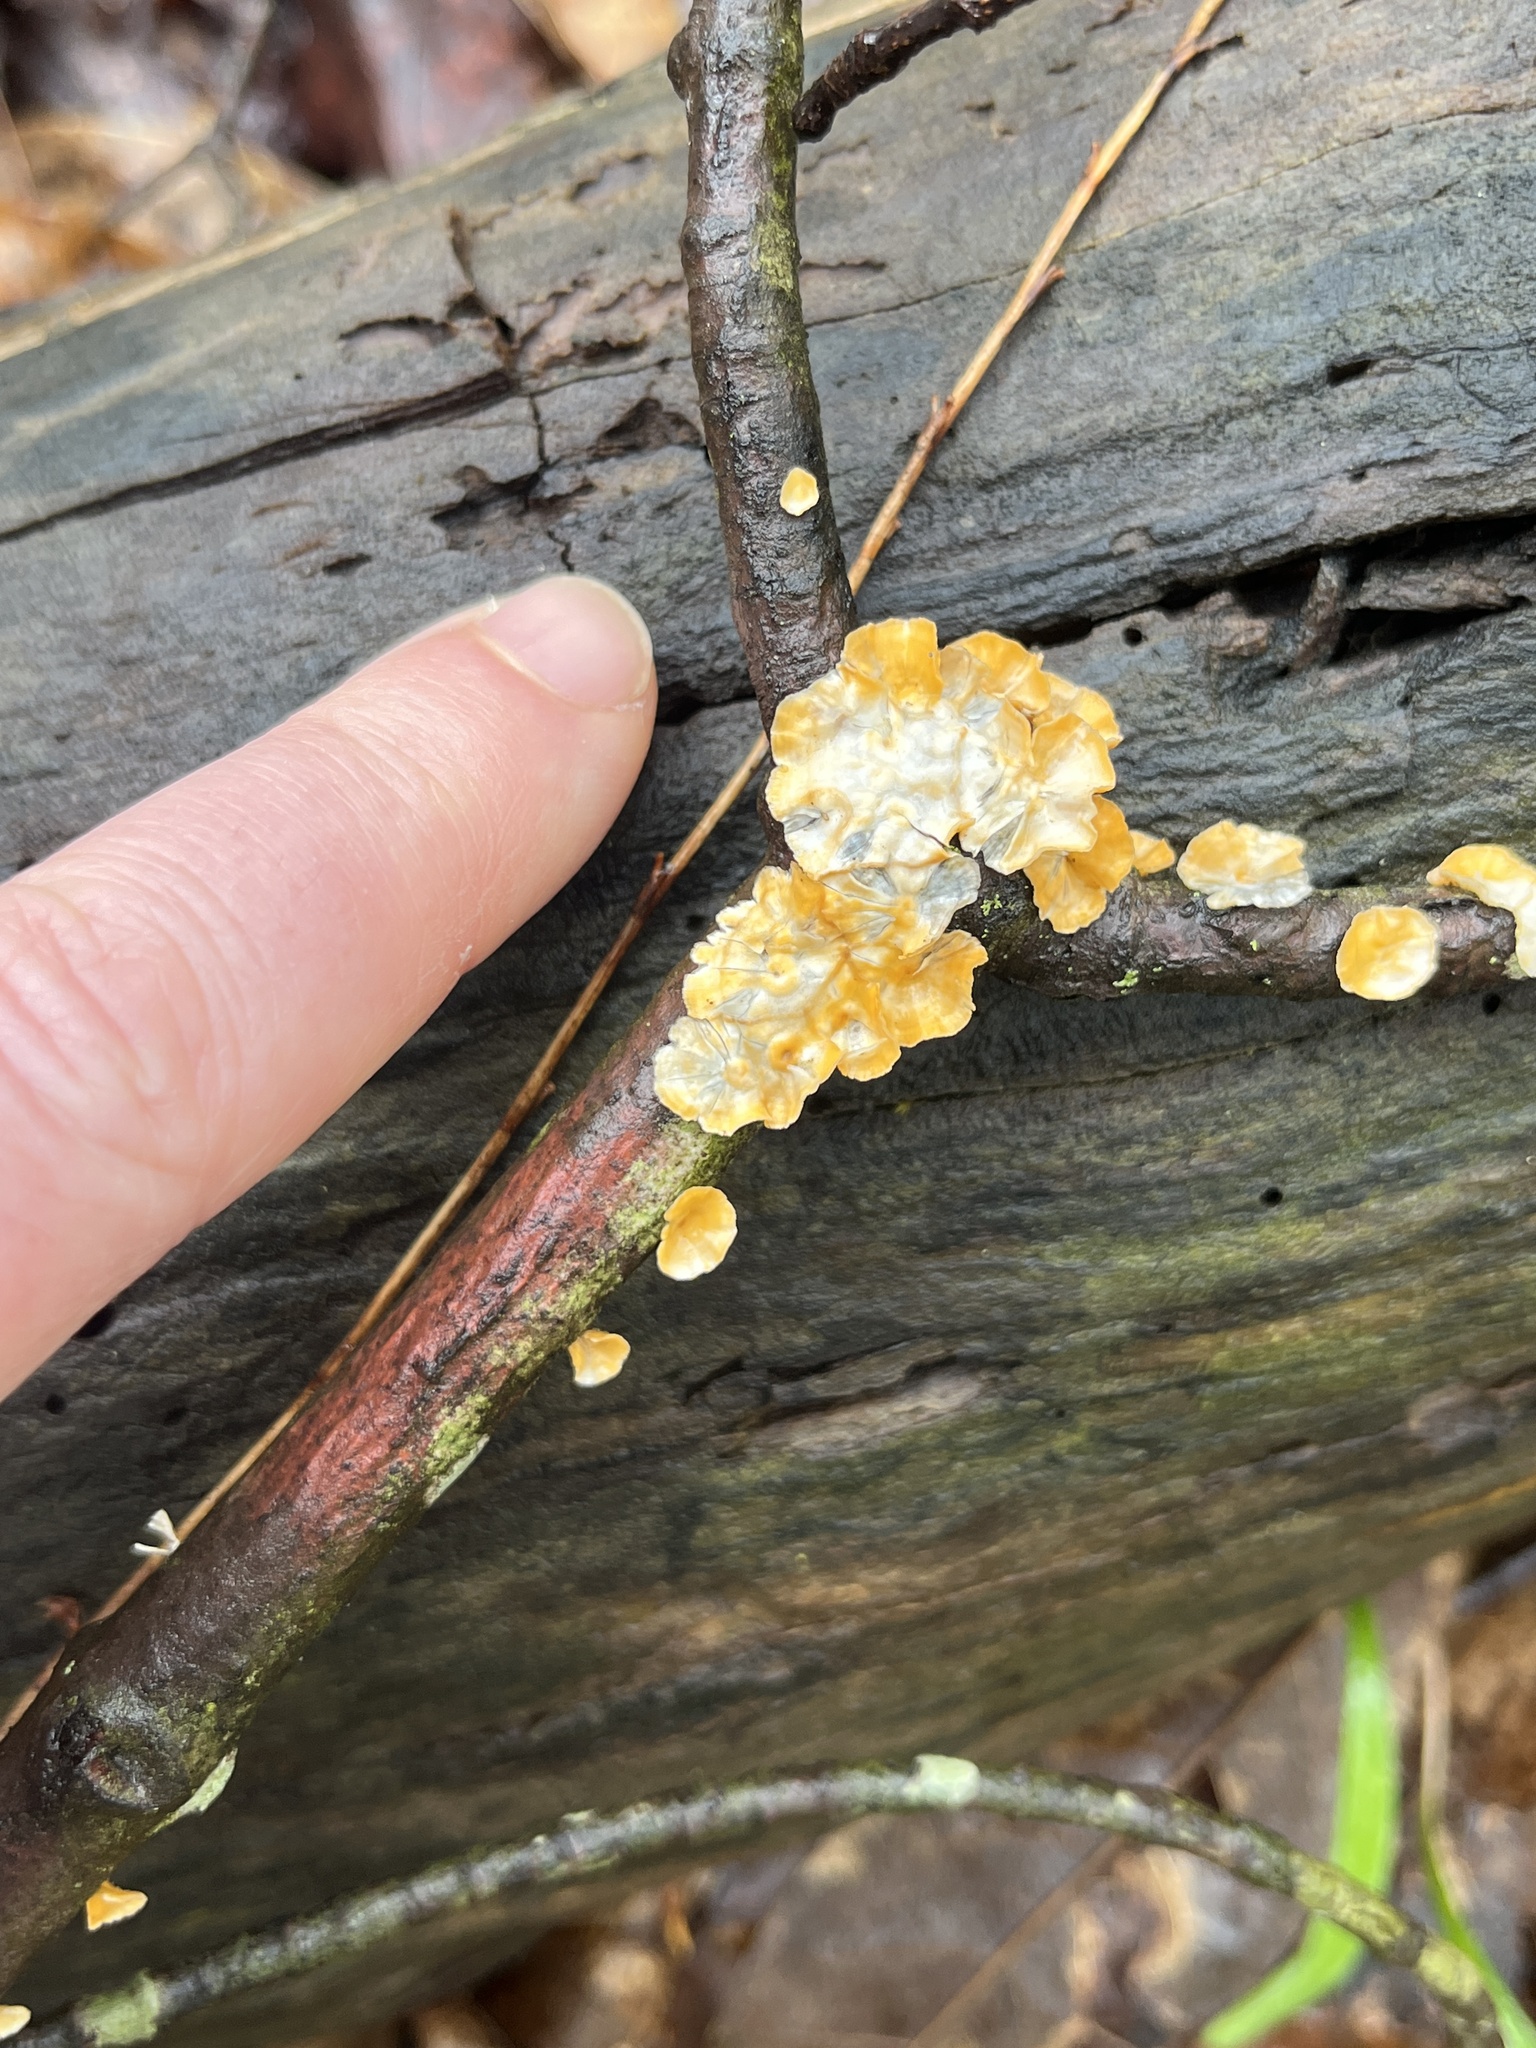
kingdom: Fungi
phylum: Basidiomycota
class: Agaricomycetes
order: Russulales
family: Stereaceae
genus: Stereum
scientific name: Stereum complicatum
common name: Crowded parchment
